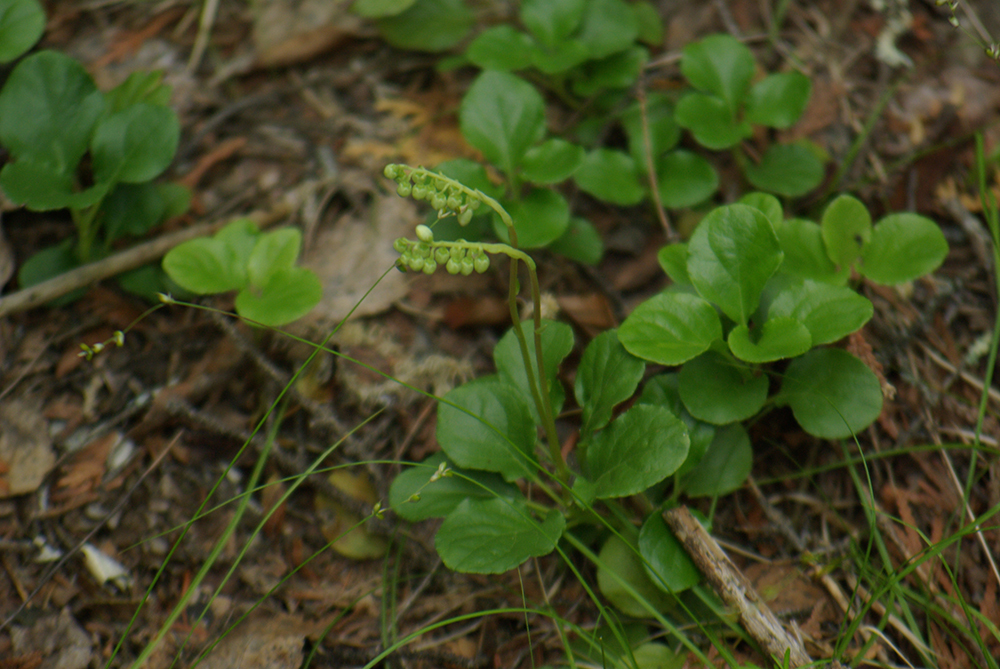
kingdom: Plantae
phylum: Tracheophyta
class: Magnoliopsida
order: Ericales
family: Ericaceae
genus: Orthilia
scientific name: Orthilia secunda
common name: One-sided orthilia
